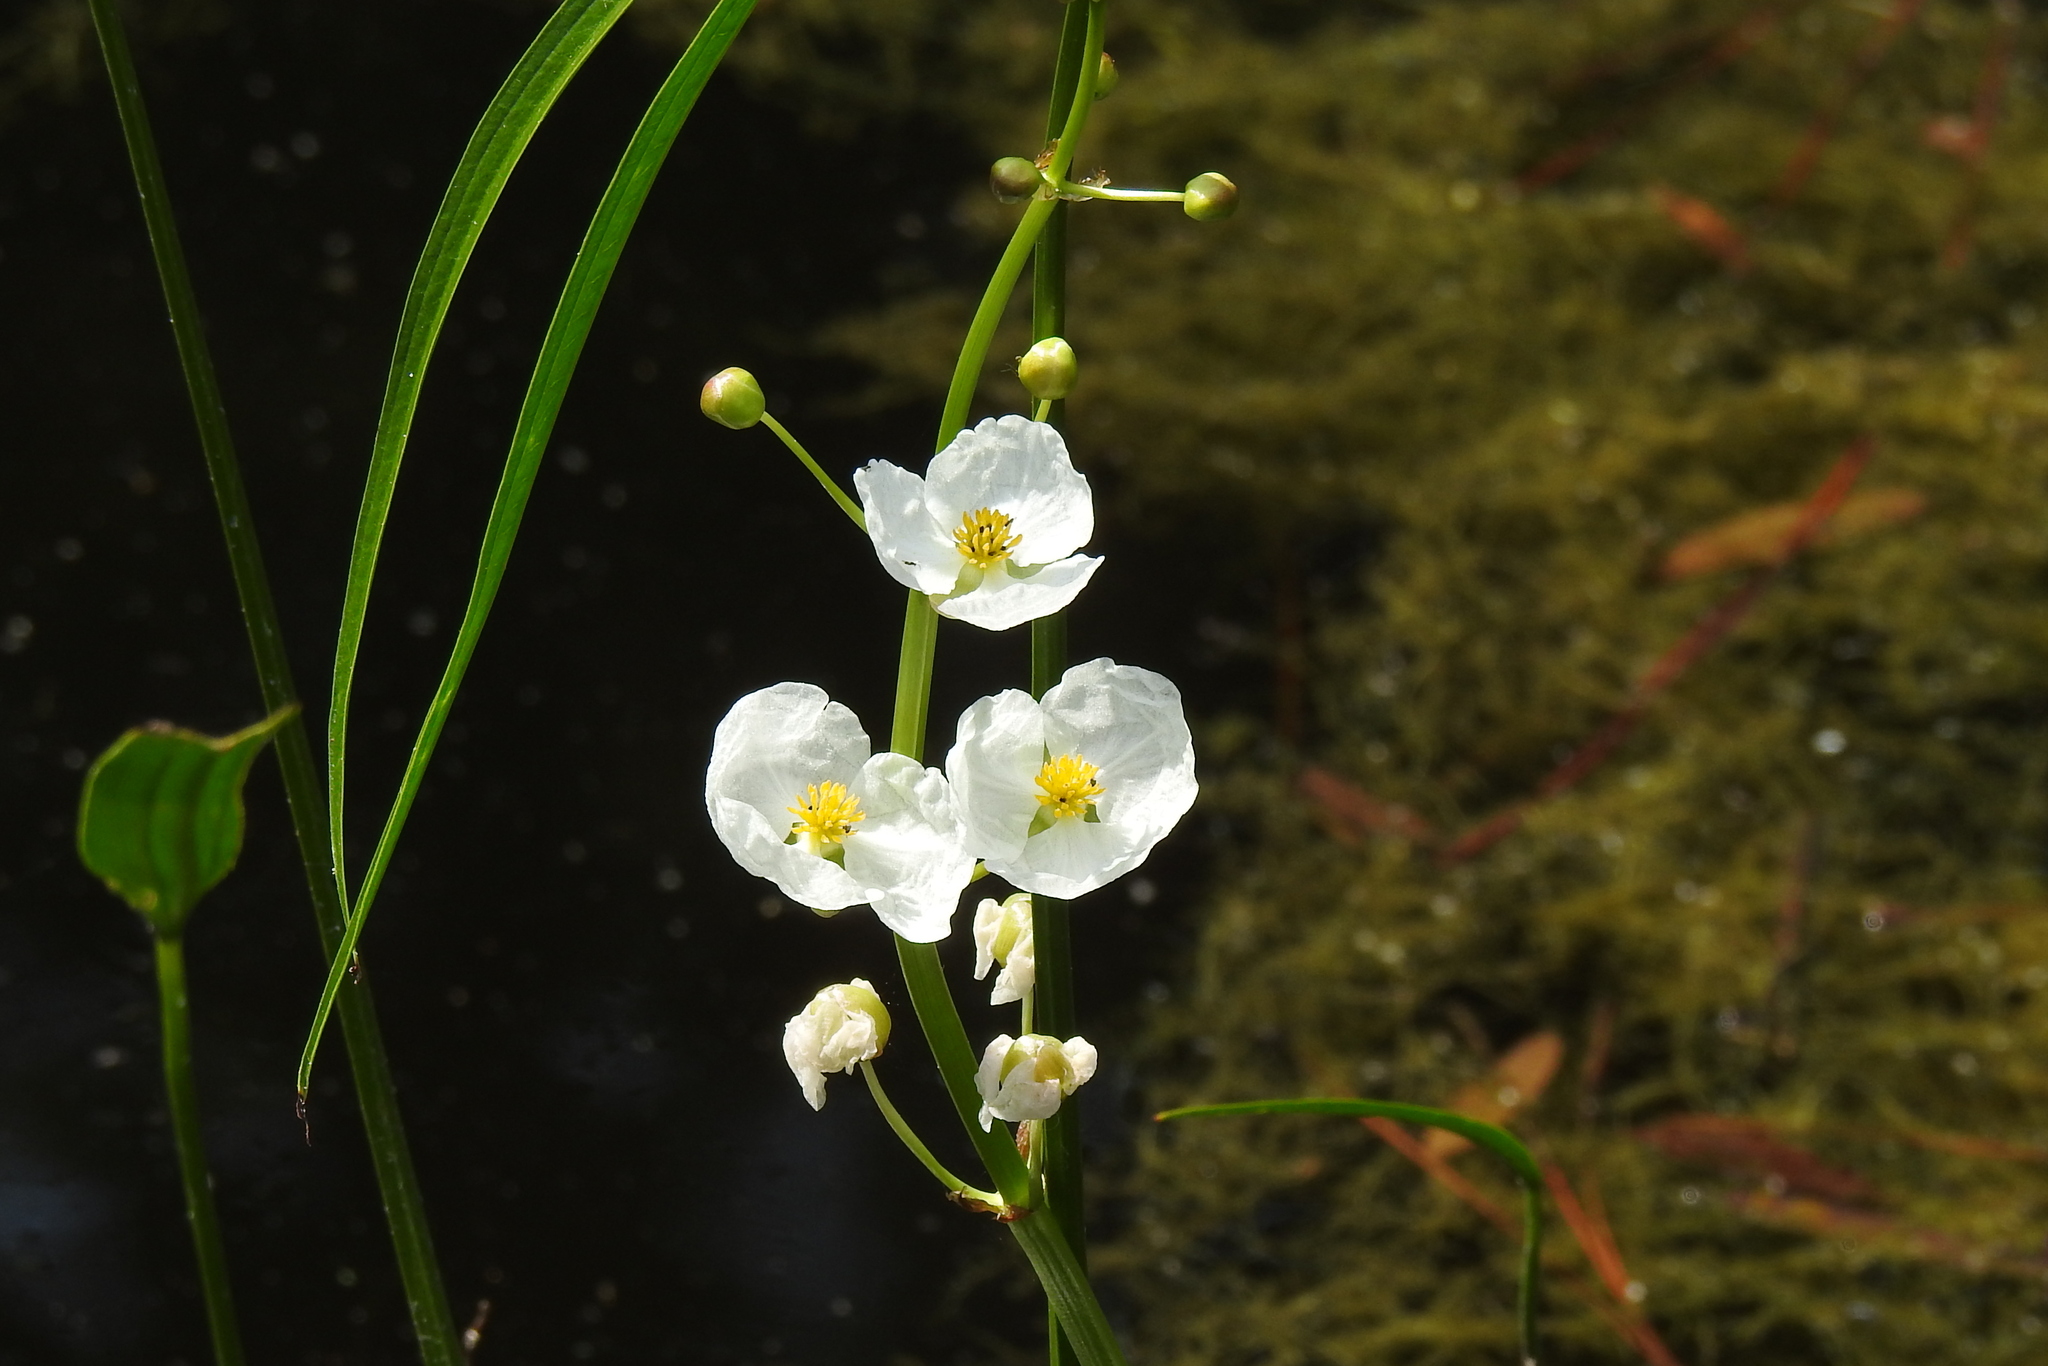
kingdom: Plantae
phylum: Tracheophyta
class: Liliopsida
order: Alismatales
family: Alismataceae
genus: Sagittaria
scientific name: Sagittaria latifolia
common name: Duck-potato
